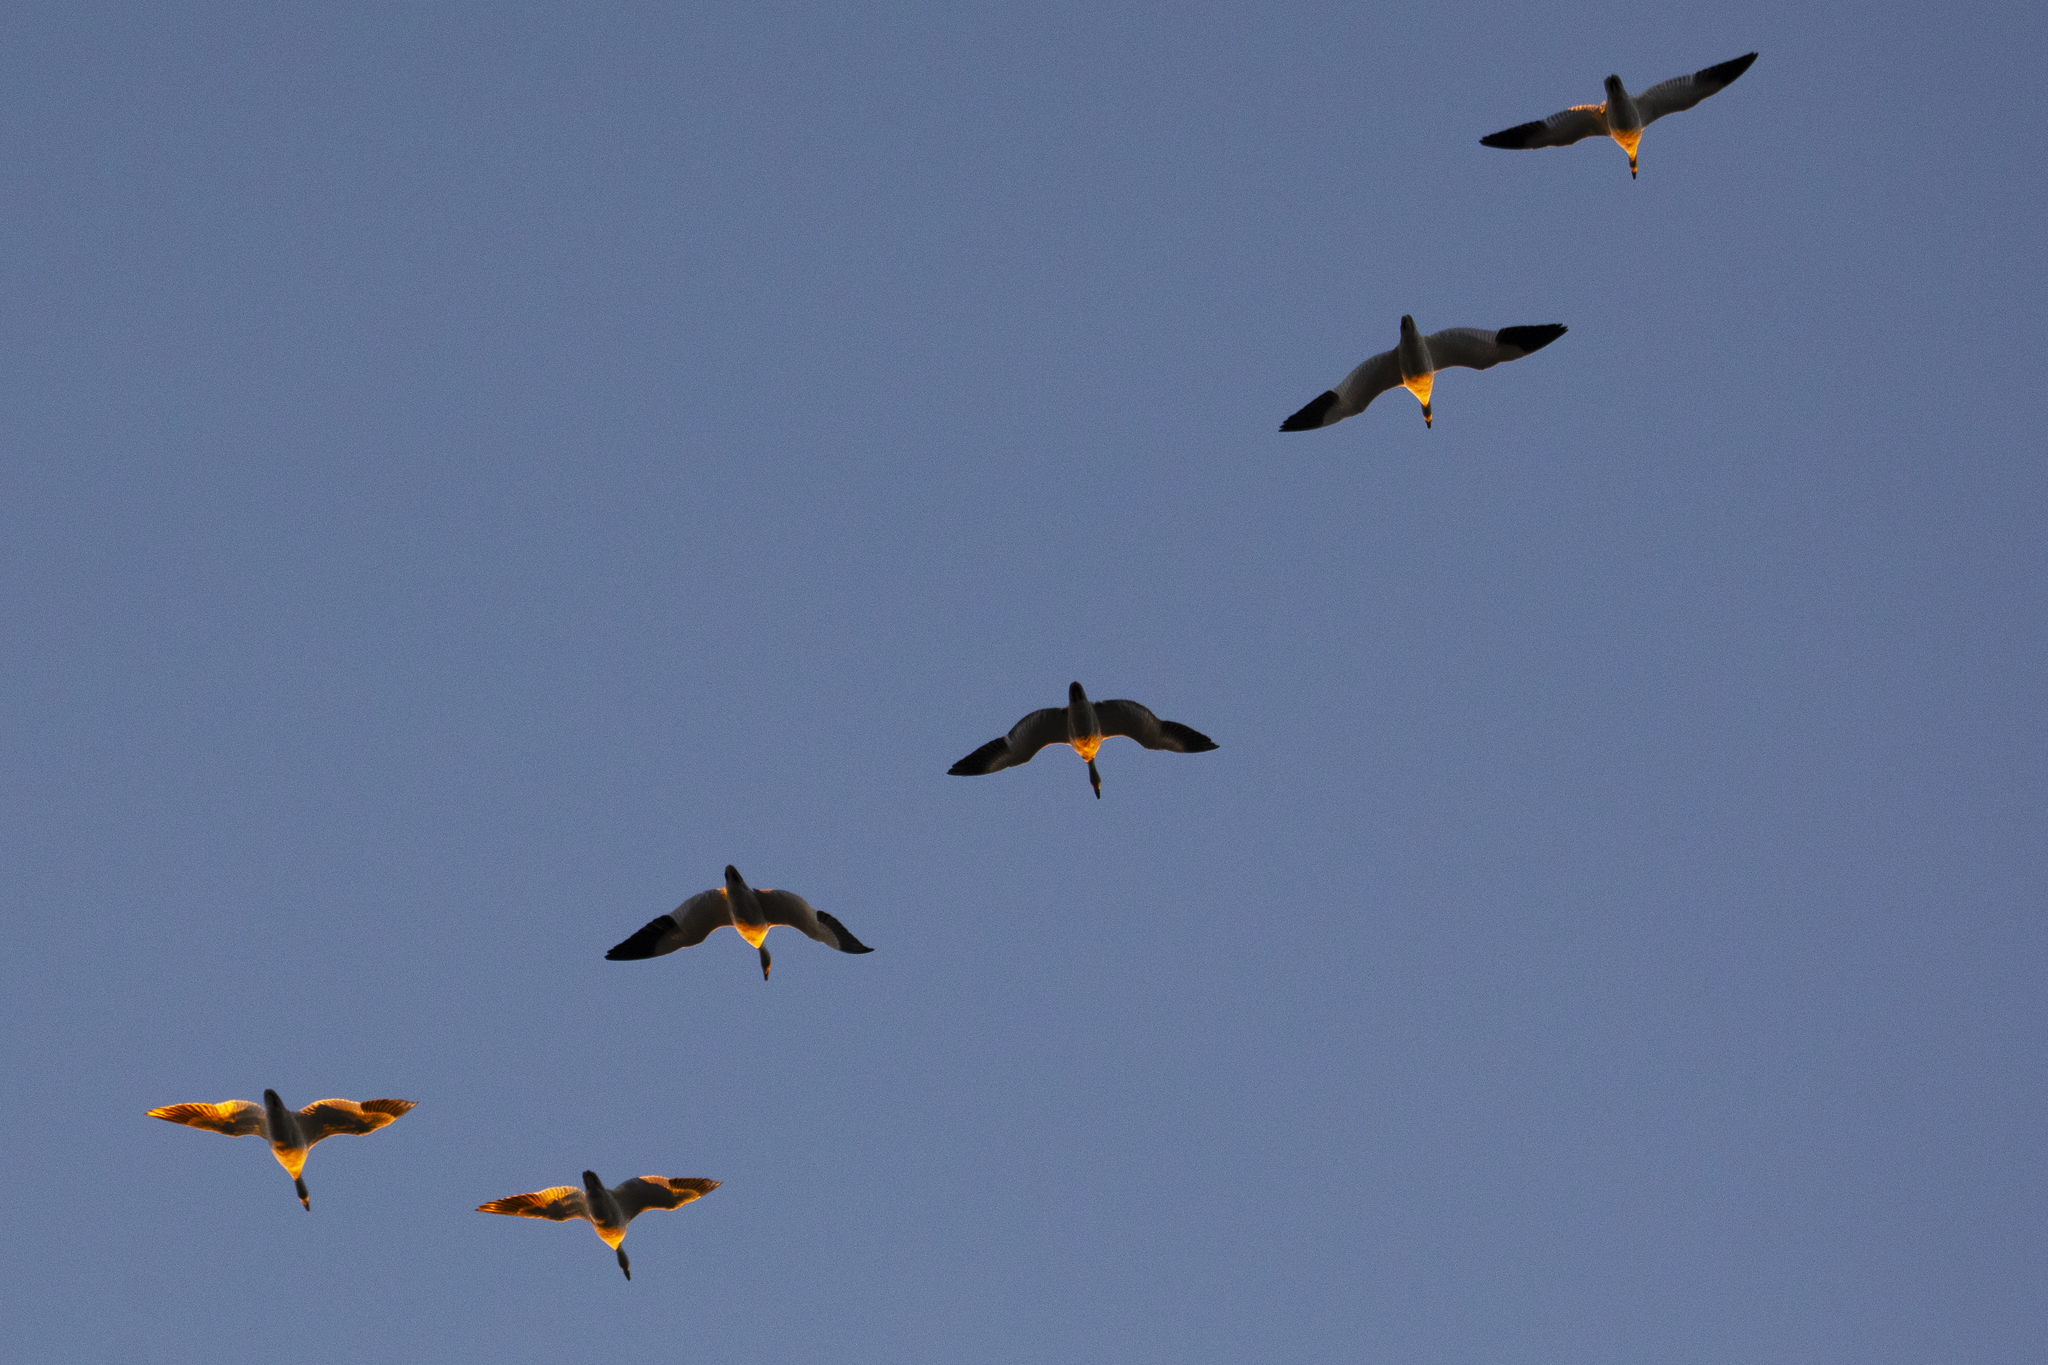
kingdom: Animalia
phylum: Chordata
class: Aves
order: Anseriformes
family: Anatidae
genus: Anser
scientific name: Anser caerulescens
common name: Snow goose
